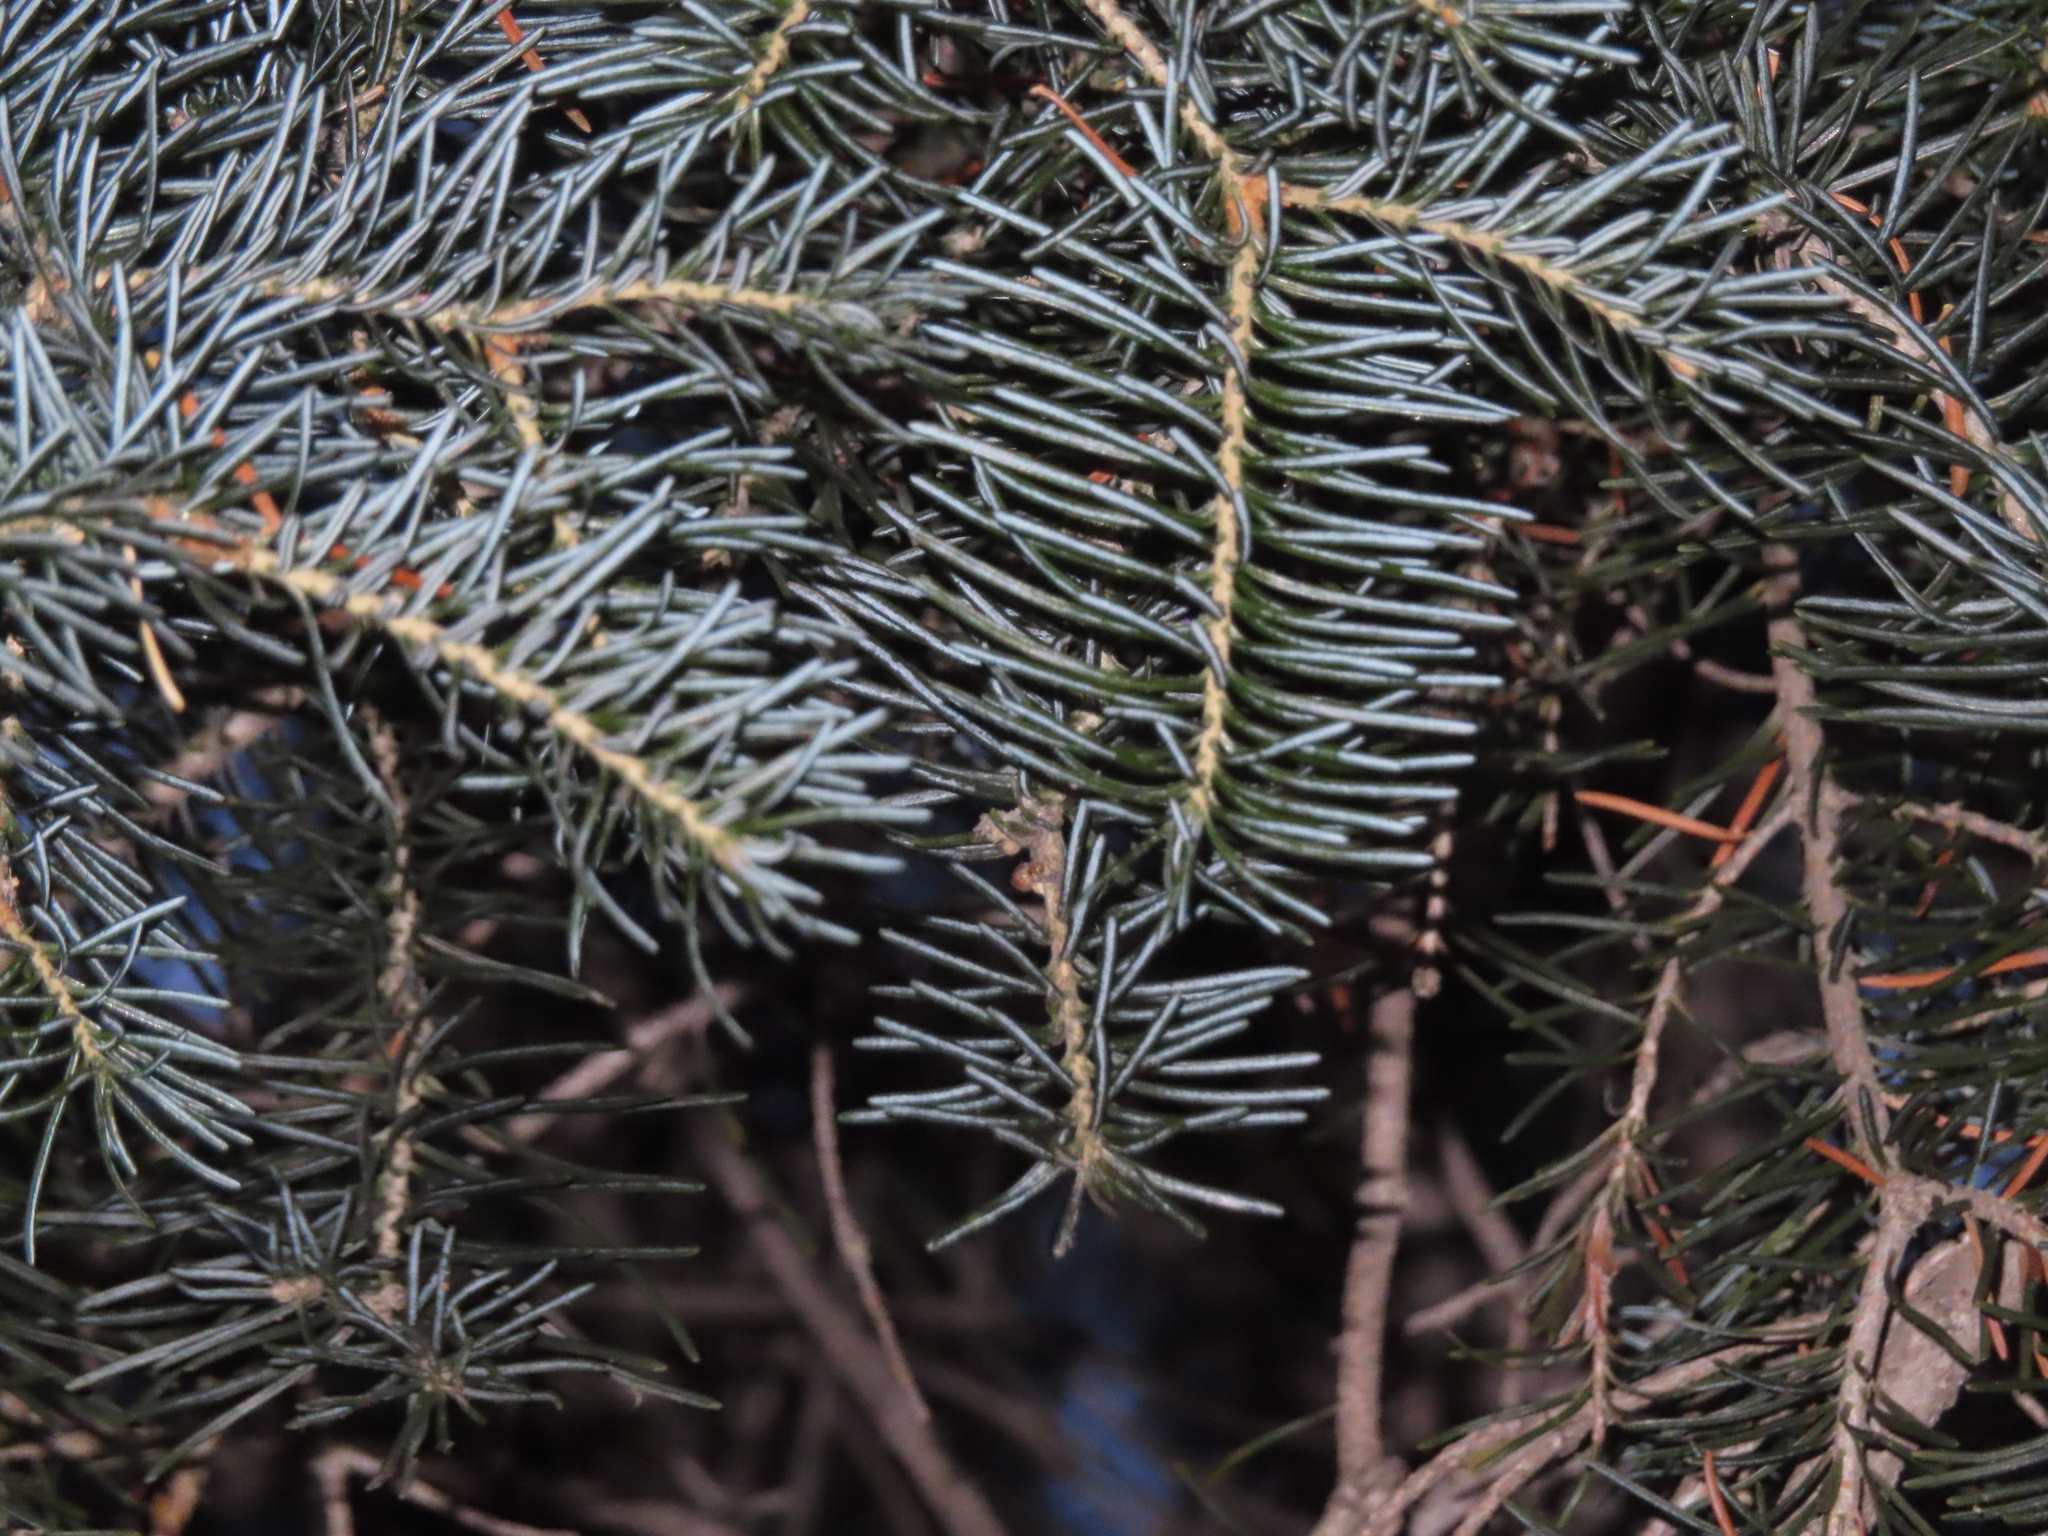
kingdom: Plantae
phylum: Tracheophyta
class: Pinopsida
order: Pinales
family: Pinaceae
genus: Abies
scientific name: Abies lasiocarpa
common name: Subalpine fir
